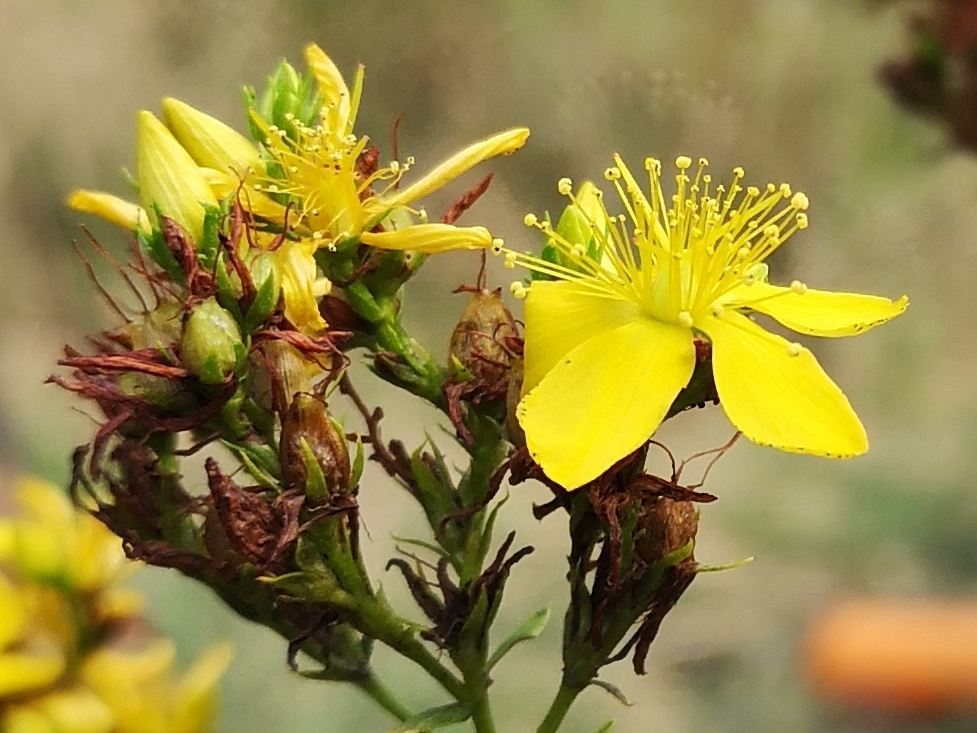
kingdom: Plantae
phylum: Tracheophyta
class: Magnoliopsida
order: Malpighiales
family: Hypericaceae
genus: Hypericum
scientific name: Hypericum perforatum
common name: Common st. johnswort
